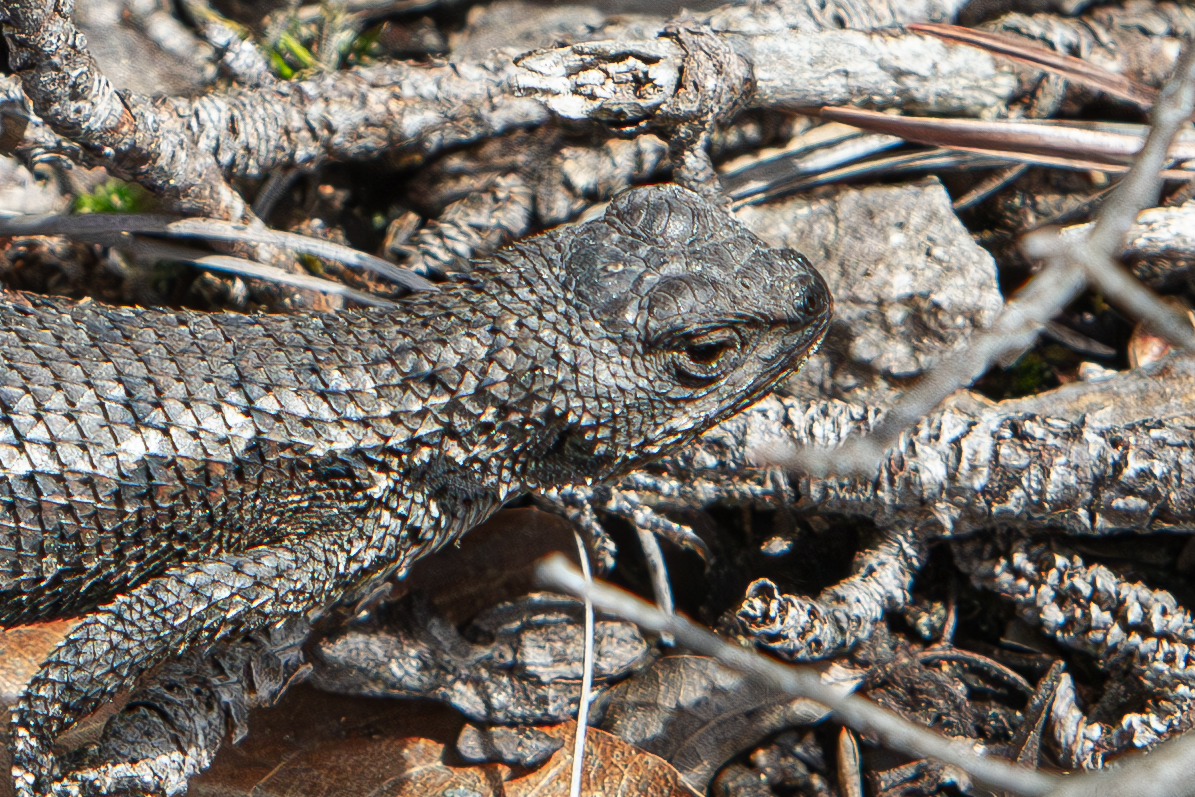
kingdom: Animalia
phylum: Chordata
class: Squamata
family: Phrynosomatidae
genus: Sceloporus
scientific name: Sceloporus undulatus
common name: Eastern fence lizard
